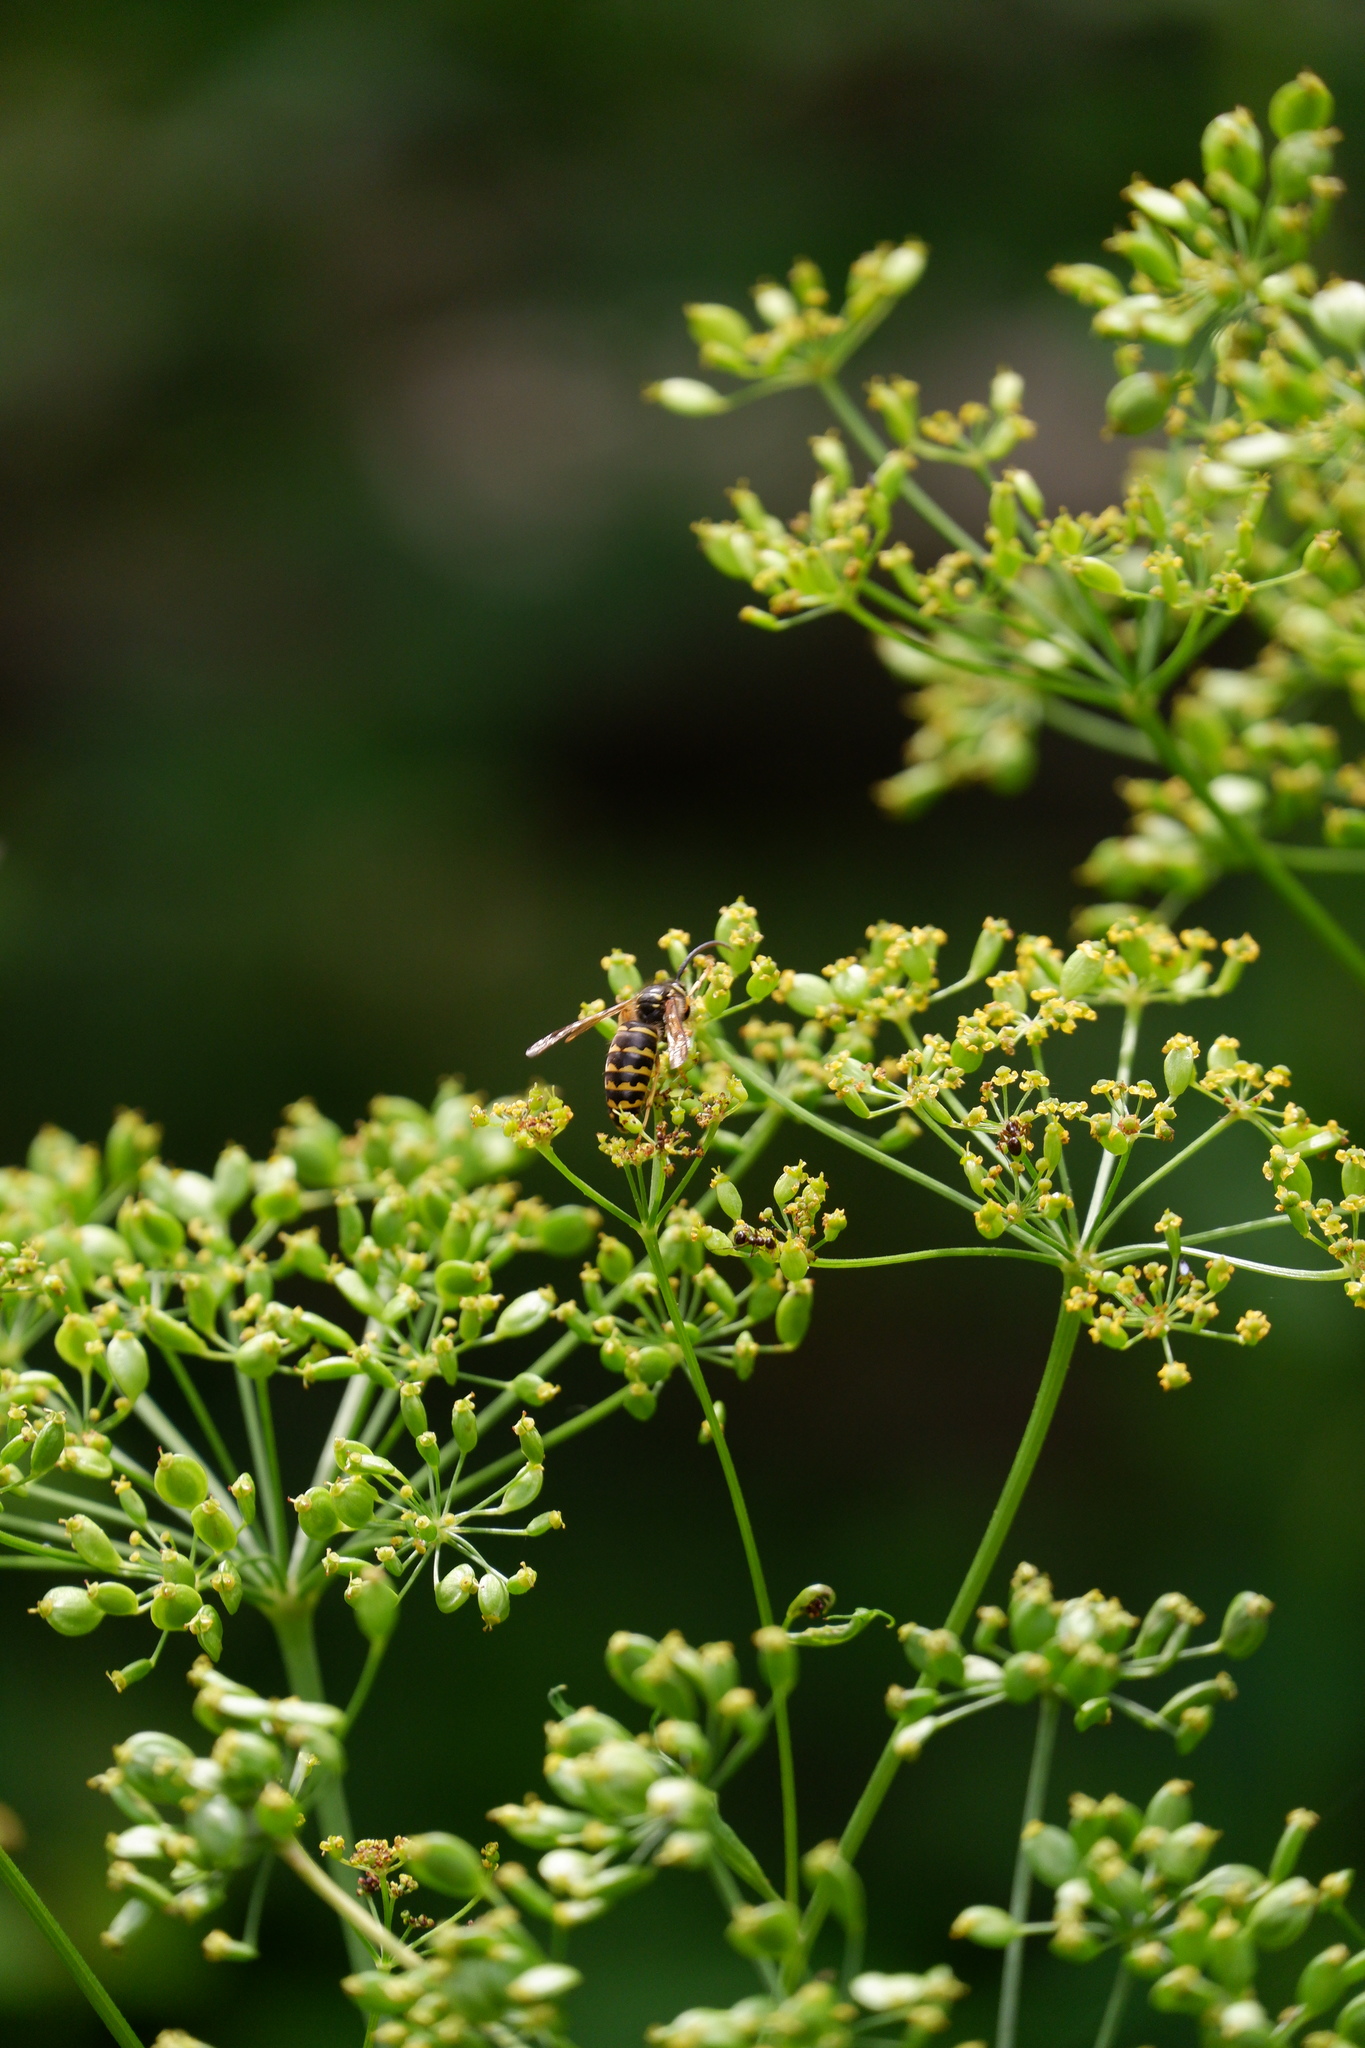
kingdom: Animalia
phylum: Arthropoda
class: Insecta
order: Hymenoptera
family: Vespidae
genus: Dolichovespula
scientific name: Dolichovespula arenaria
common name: Aerial yellowjacket
